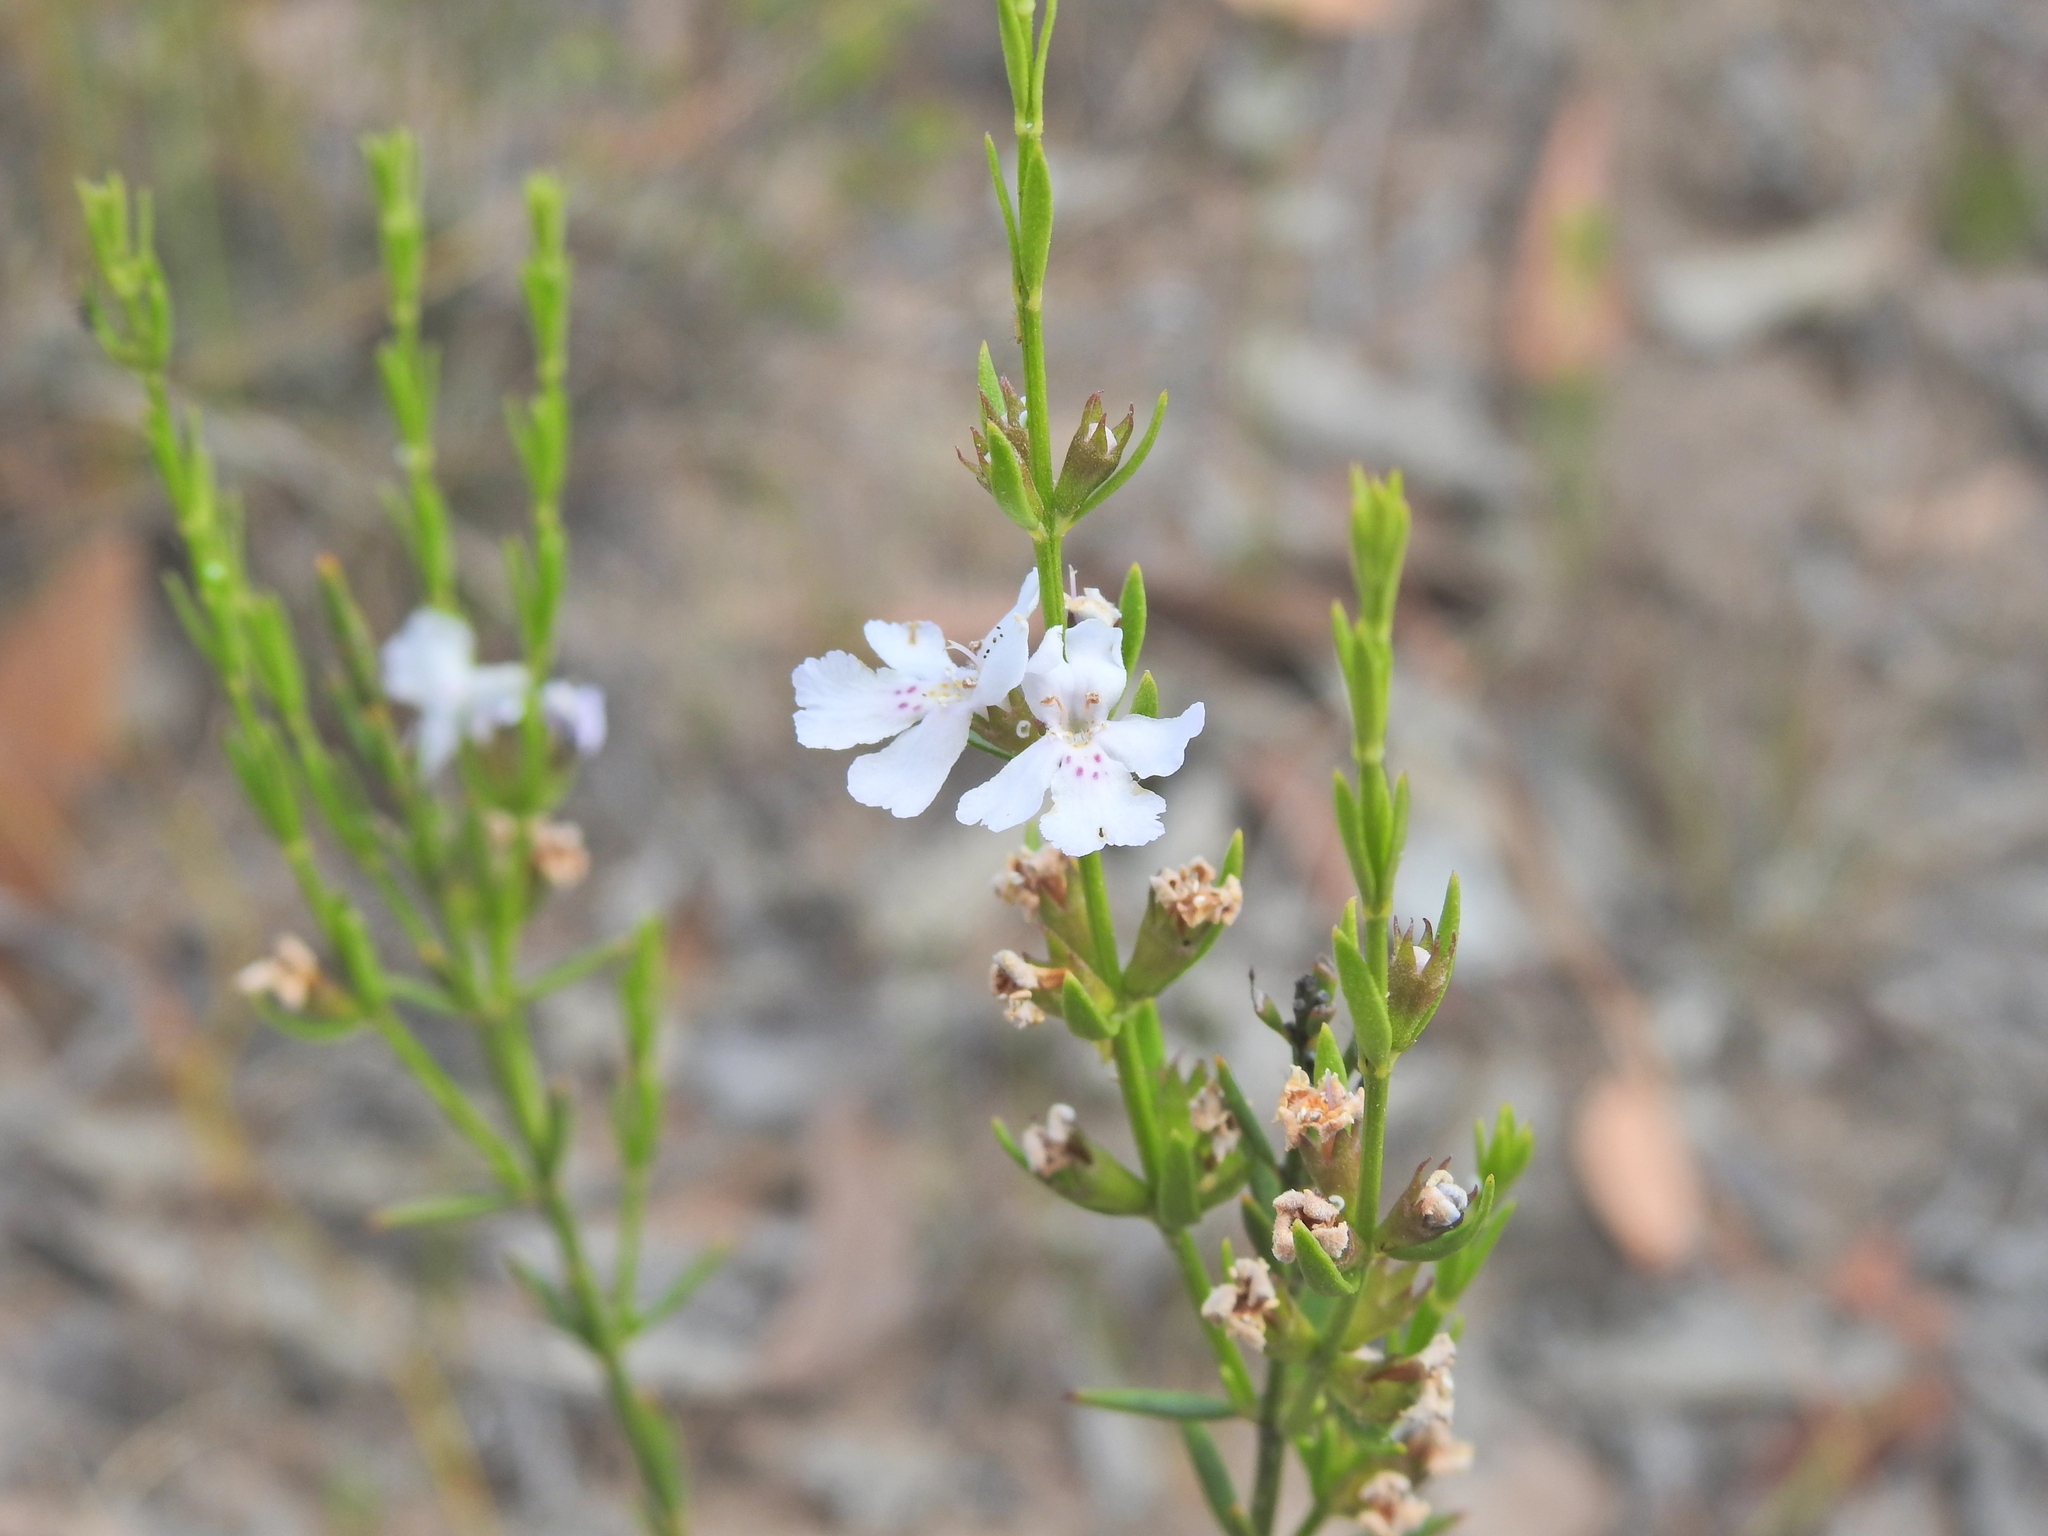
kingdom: Plantae
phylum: Tracheophyta
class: Magnoliopsida
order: Lamiales
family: Lamiaceae
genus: Westringia
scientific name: Westringia tenuicaulis
